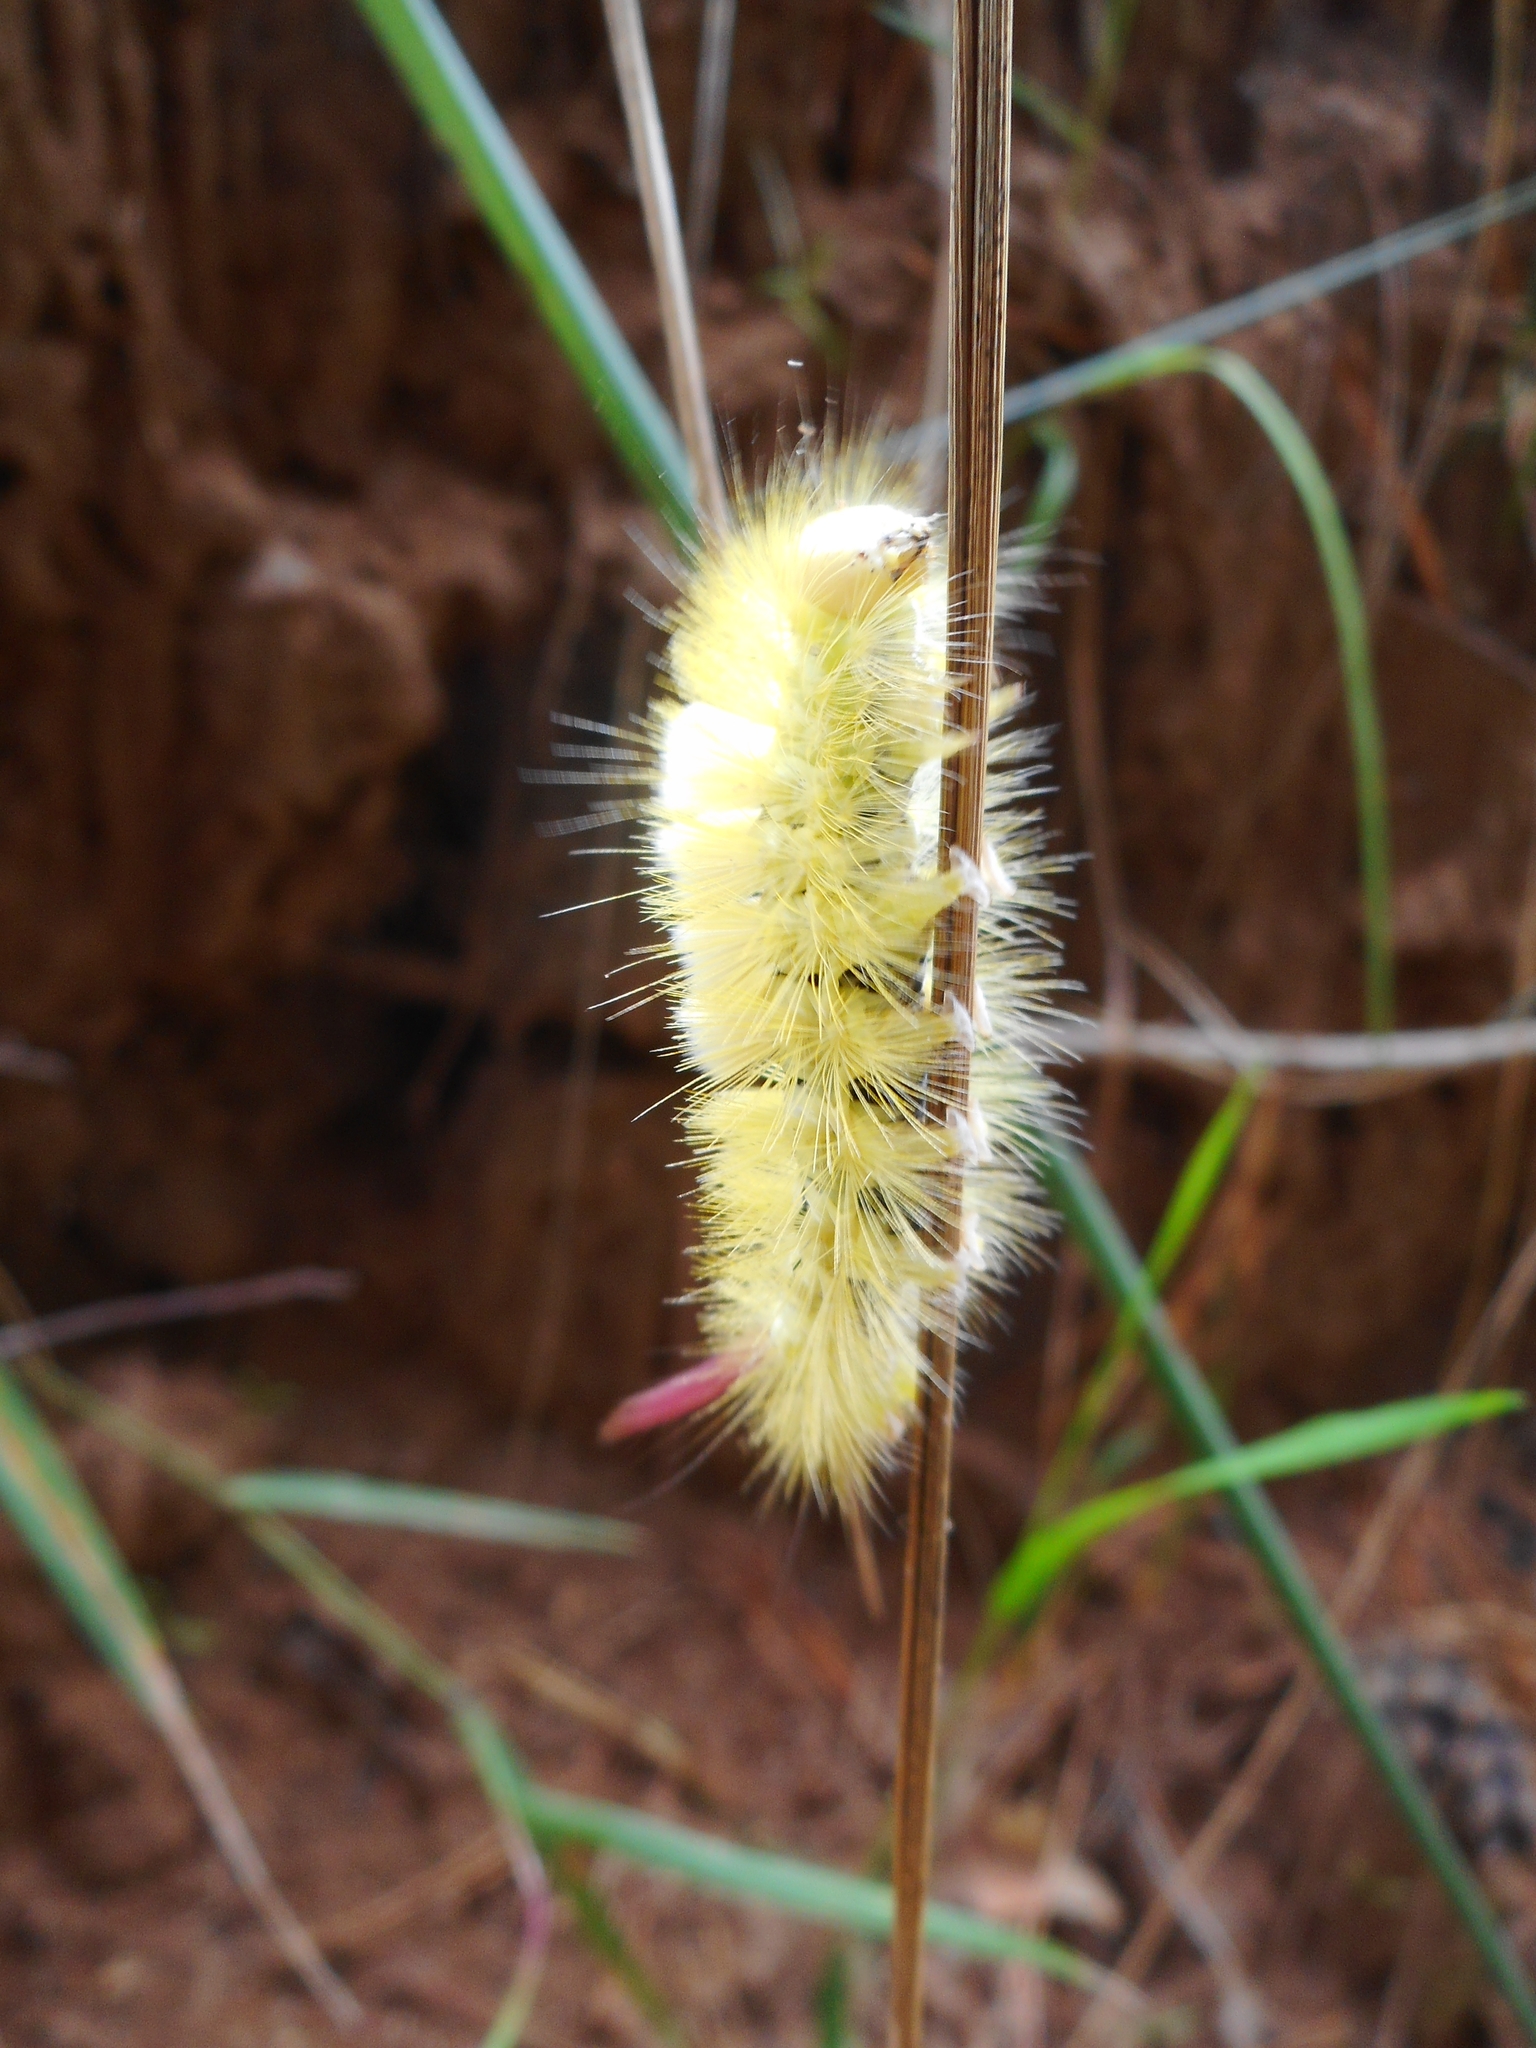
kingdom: Animalia
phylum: Arthropoda
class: Insecta
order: Lepidoptera
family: Erebidae
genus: Calliteara
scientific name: Calliteara pudibunda
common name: Pale tussock
